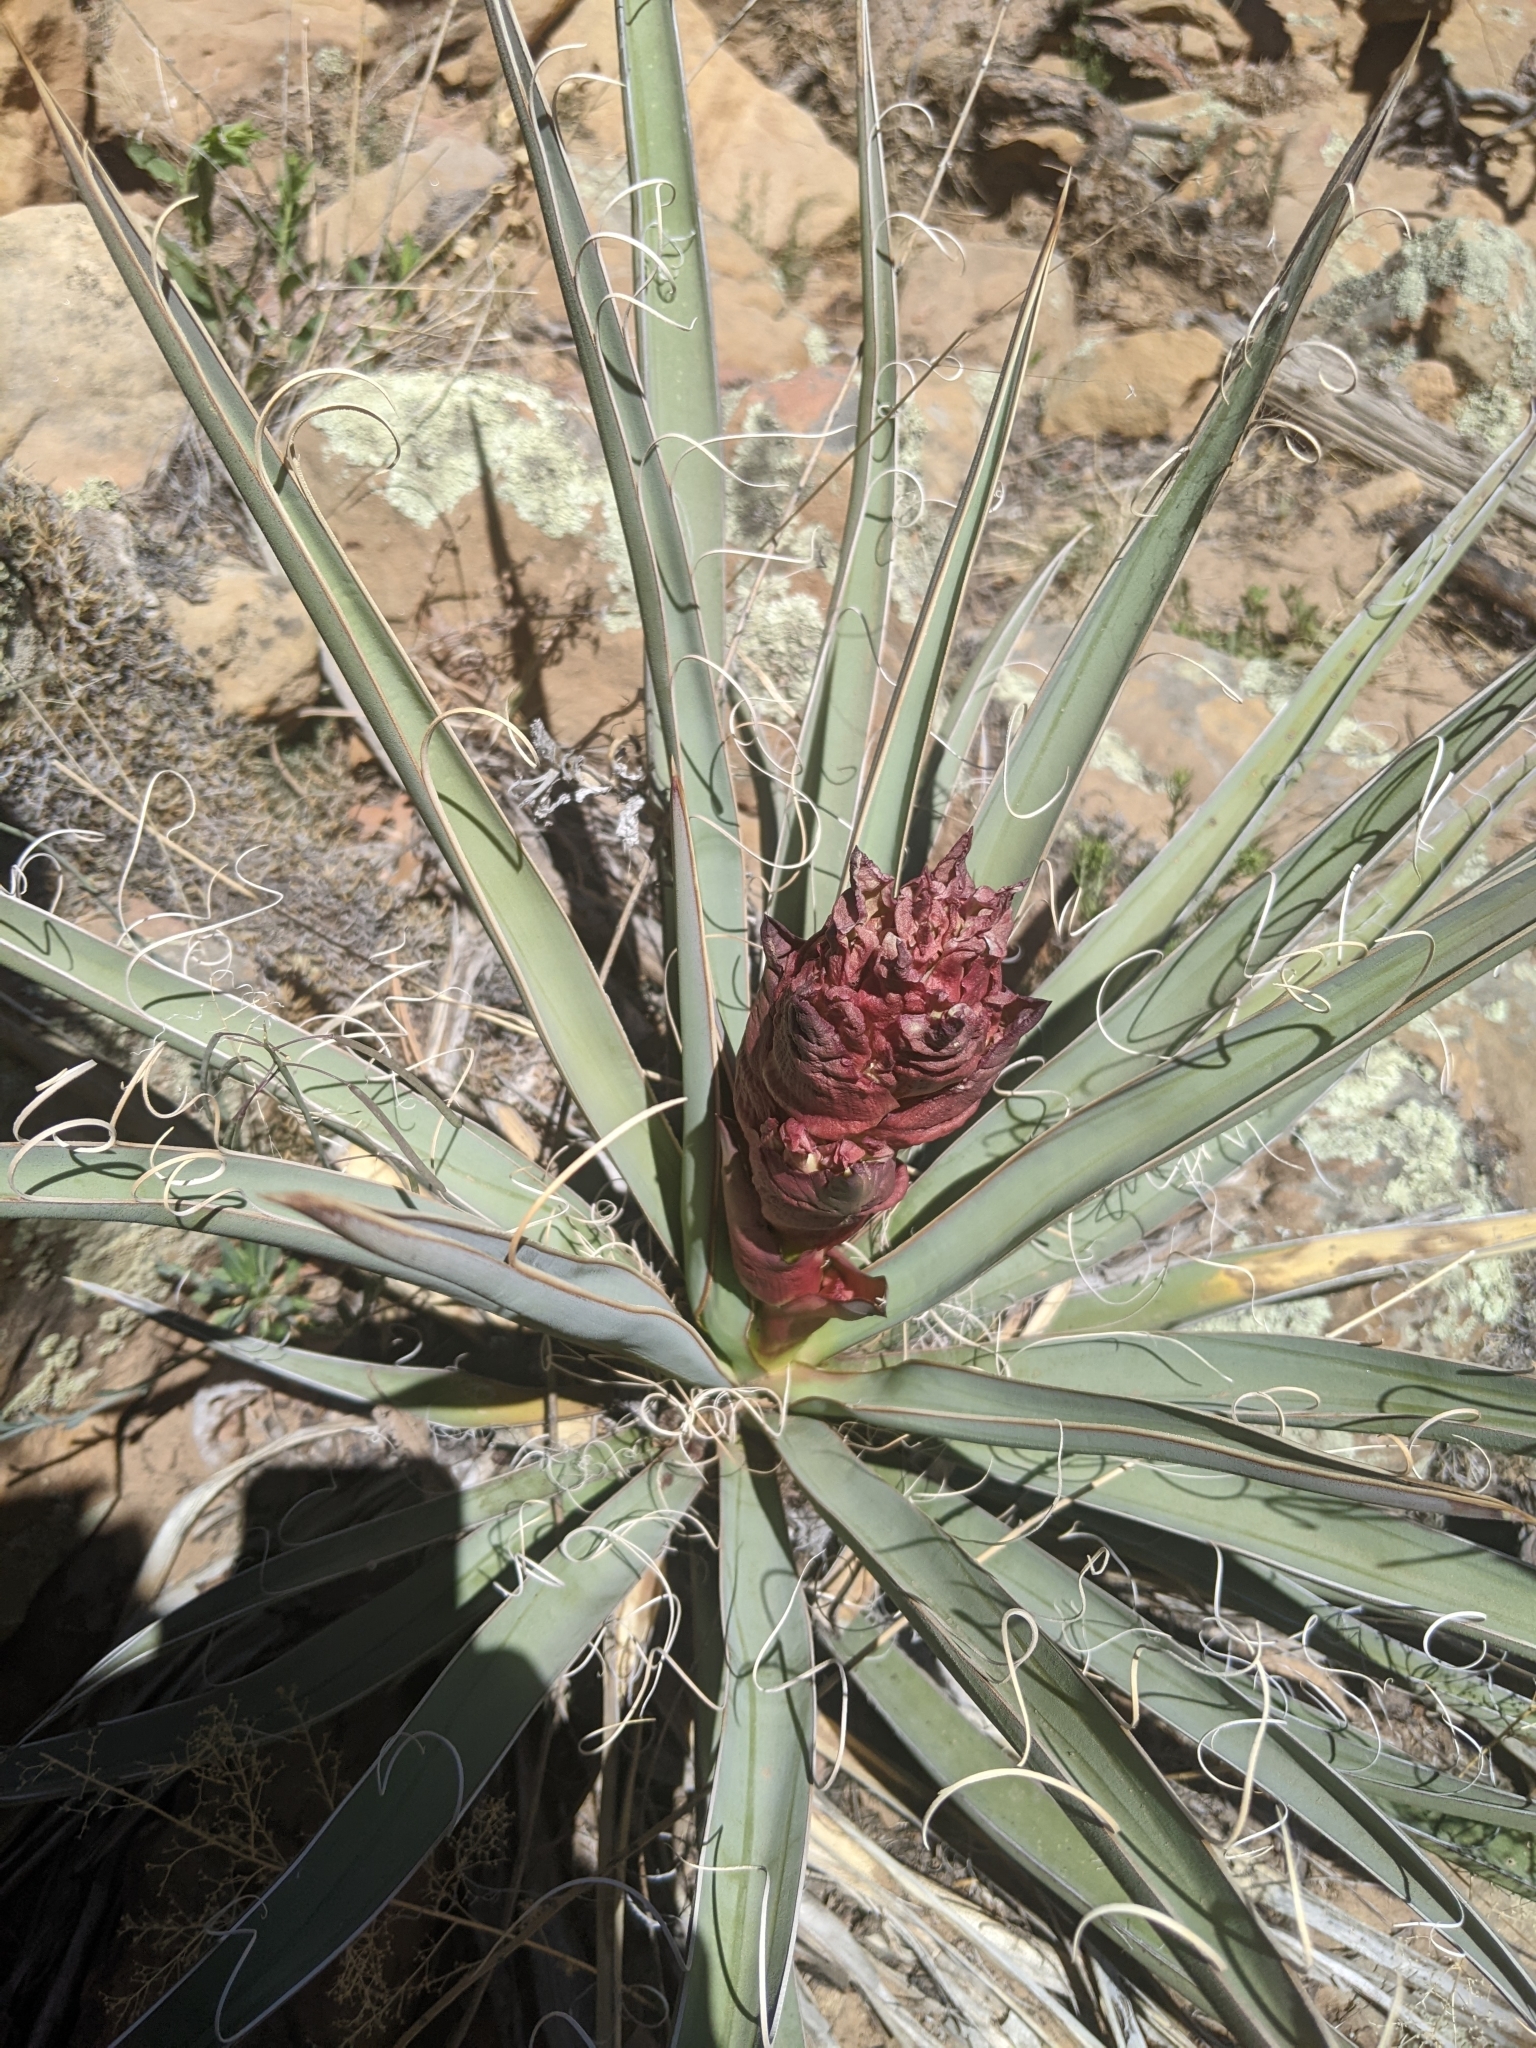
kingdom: Plantae
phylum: Tracheophyta
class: Liliopsida
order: Asparagales
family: Asparagaceae
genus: Yucca
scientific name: Yucca baccata
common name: Banana yucca
